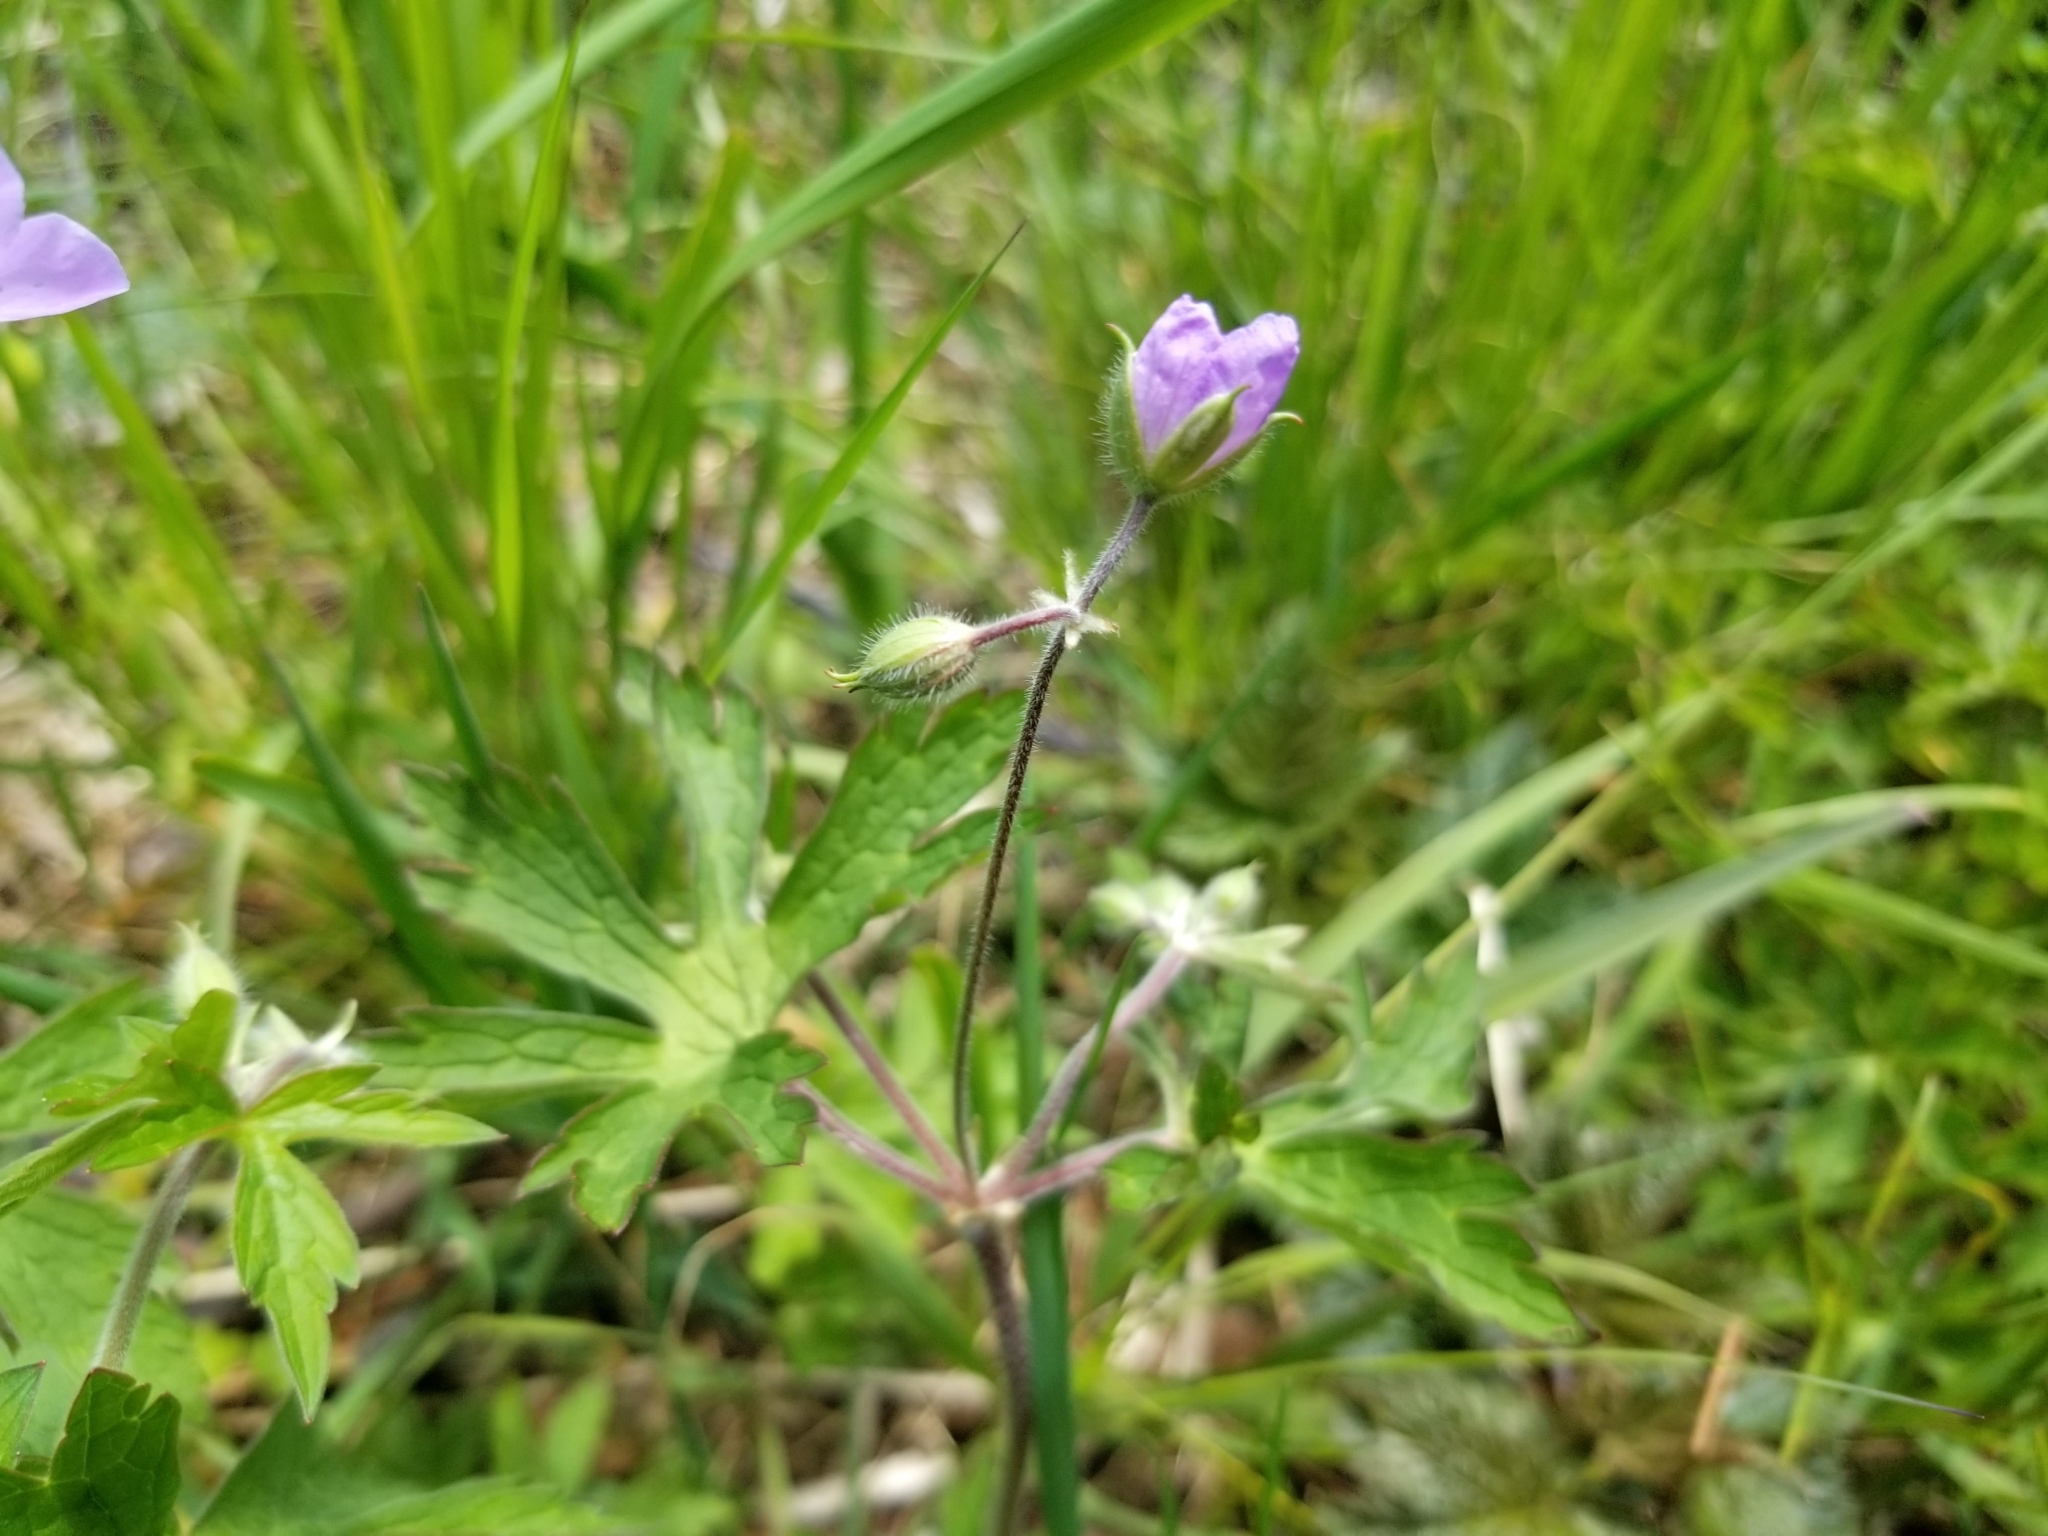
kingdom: Plantae
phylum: Tracheophyta
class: Magnoliopsida
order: Geraniales
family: Geraniaceae
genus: Geranium
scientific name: Geranium maculatum
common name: Spotted geranium
